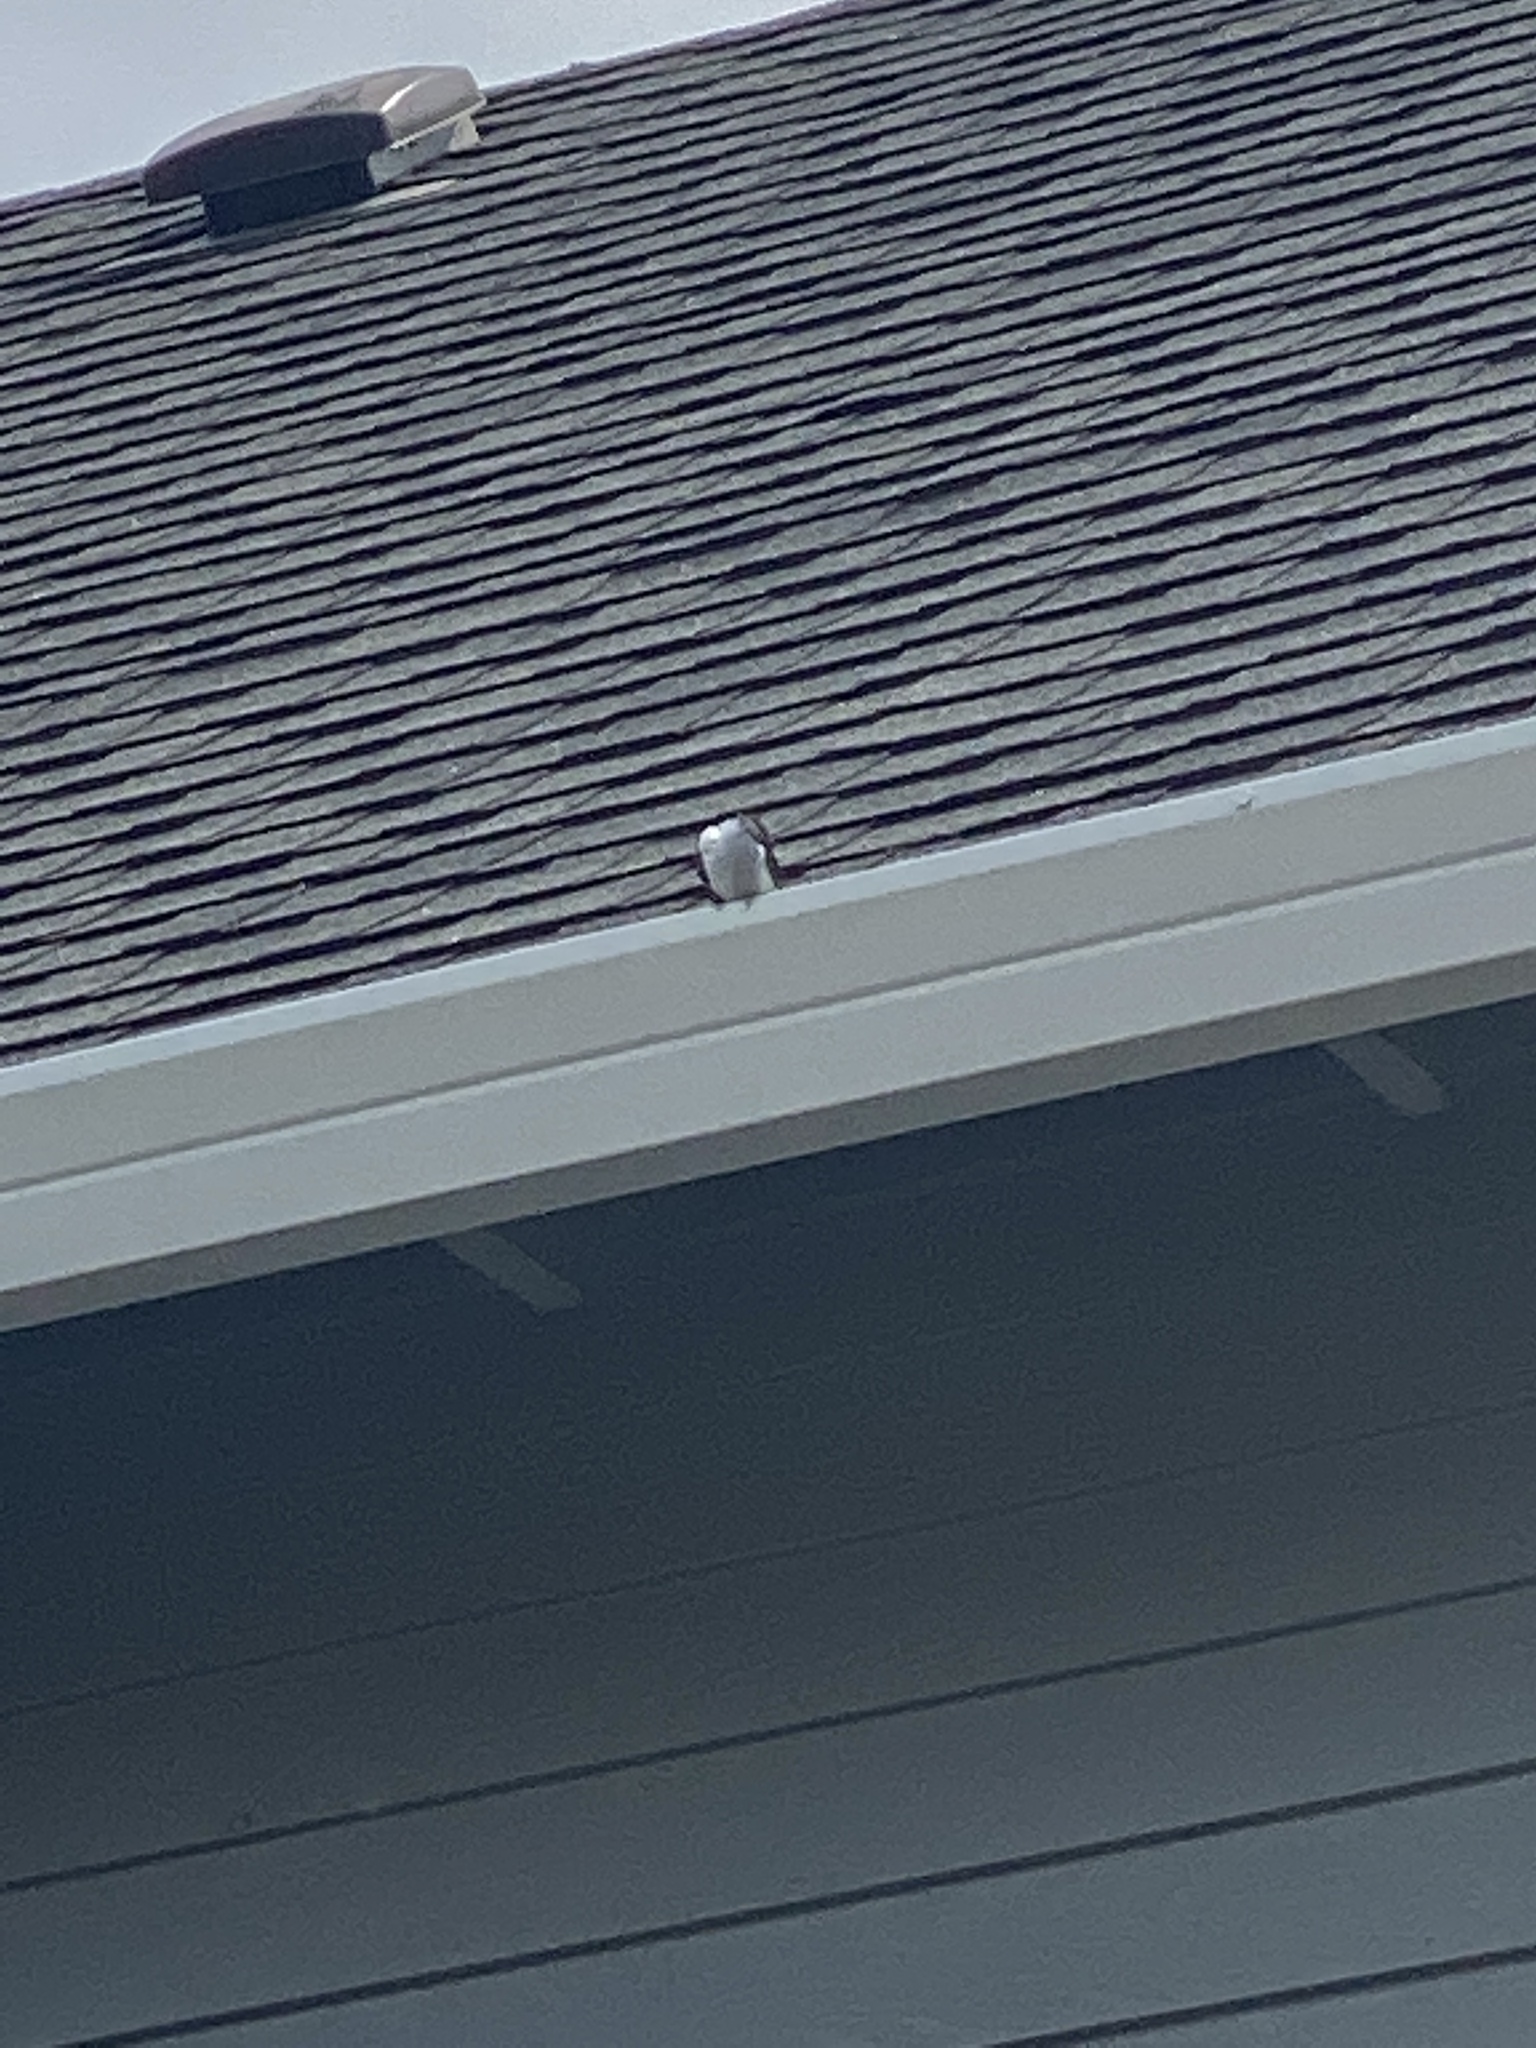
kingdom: Animalia
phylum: Chordata
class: Aves
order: Passeriformes
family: Hirundinidae
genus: Tachycineta
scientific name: Tachycineta bicolor
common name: Tree swallow
